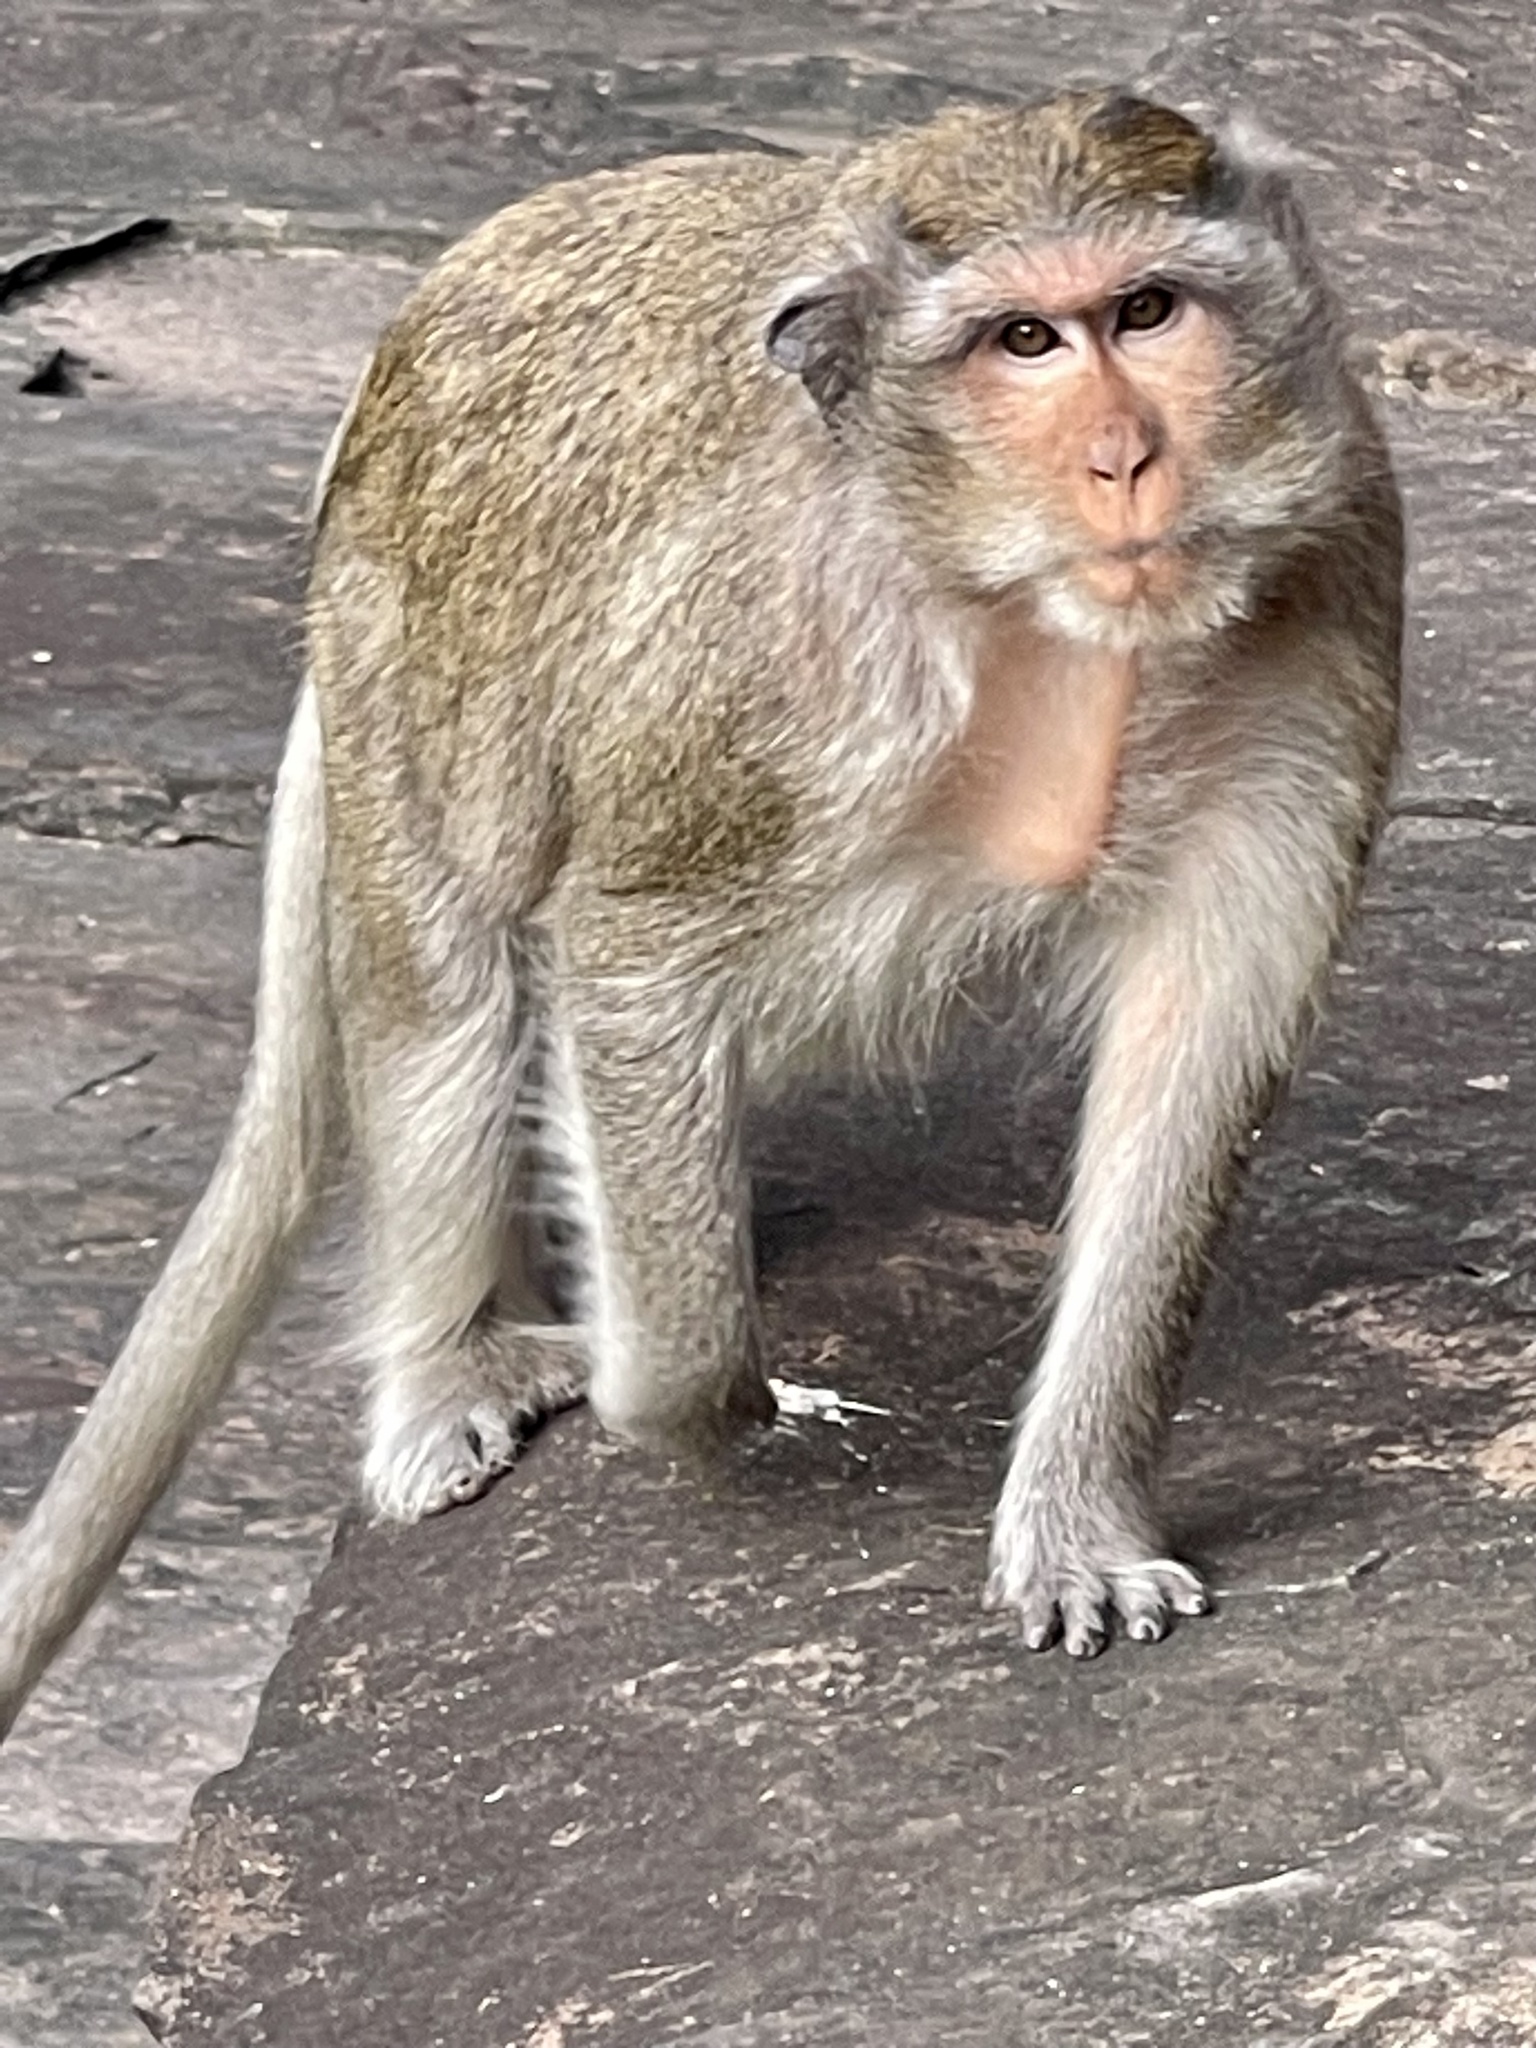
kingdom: Animalia
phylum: Chordata
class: Mammalia
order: Primates
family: Cercopithecidae
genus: Macaca
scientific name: Macaca fascicularis
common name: Crab-eating macaque
